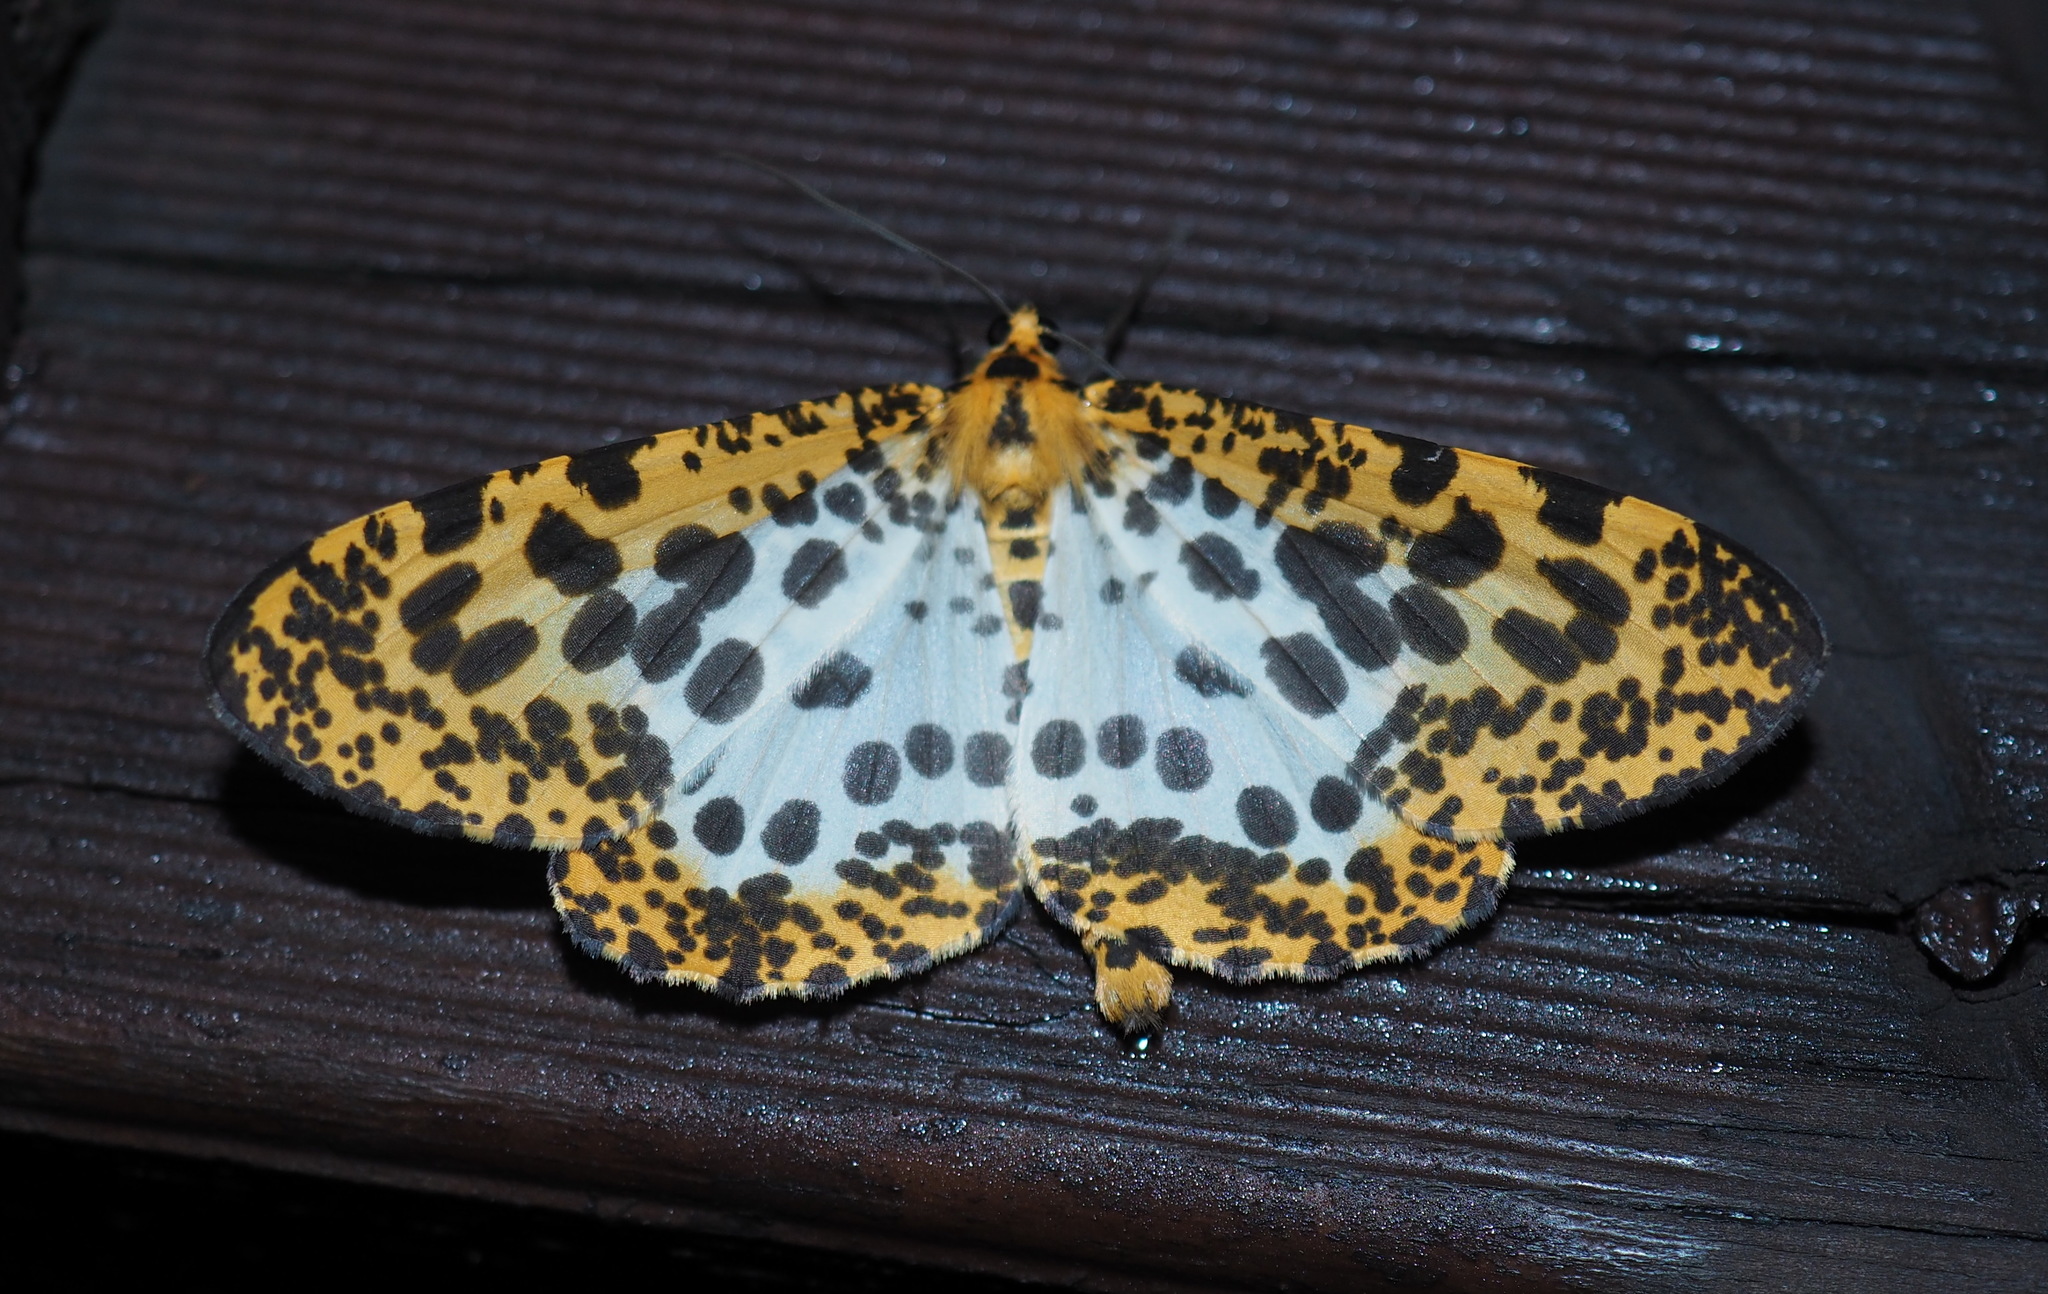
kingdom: Animalia
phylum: Arthropoda
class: Insecta
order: Lepidoptera
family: Geometridae
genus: Obeidia
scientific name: Obeidia Epobeidia tigrata
